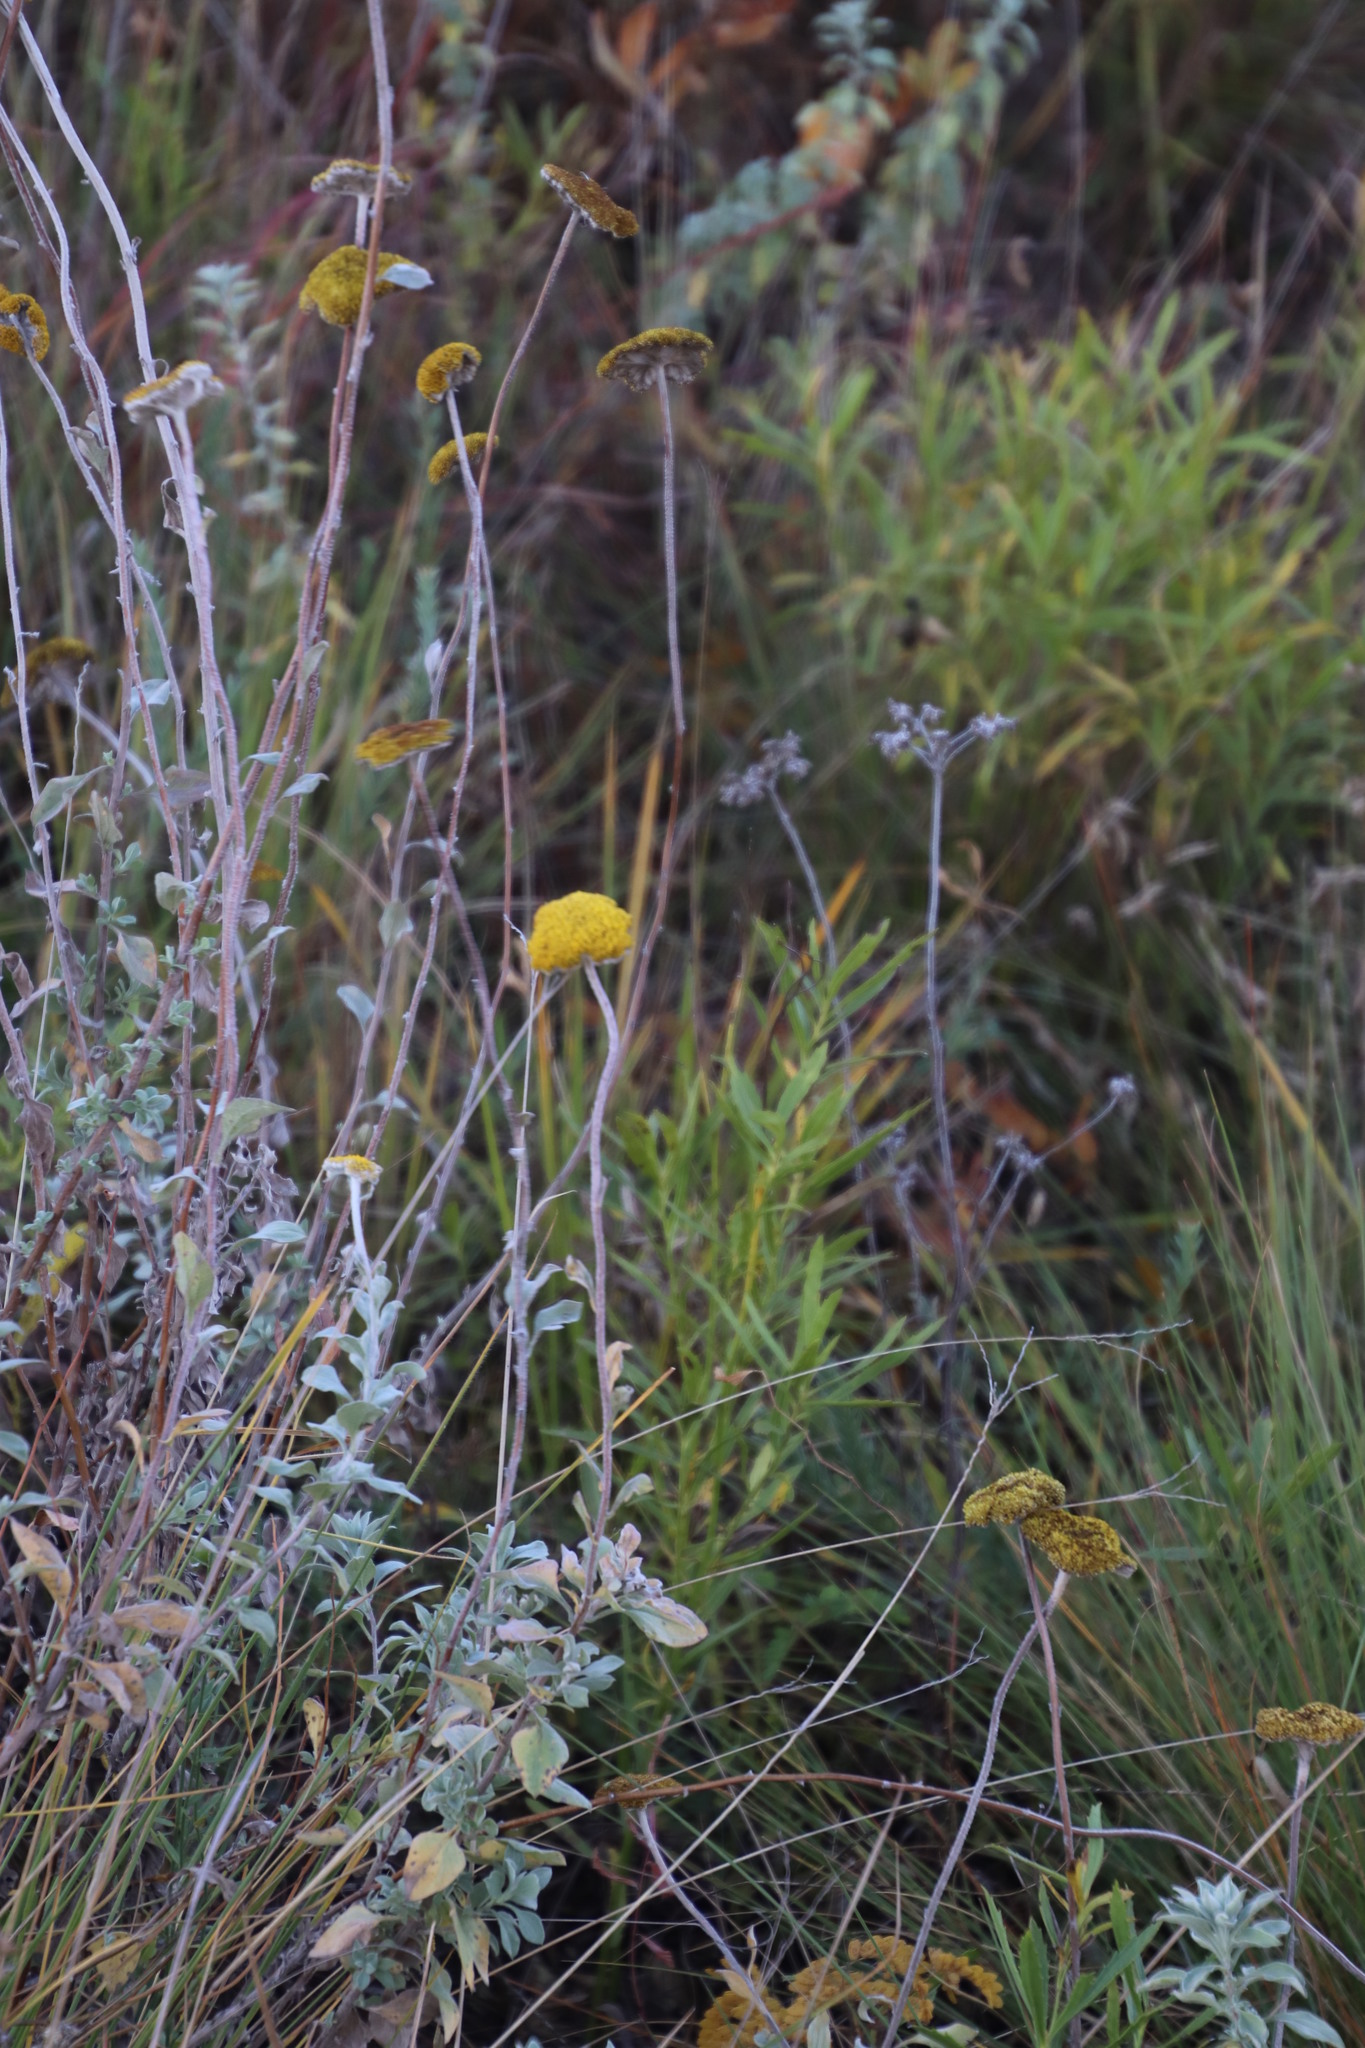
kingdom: Plantae
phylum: Tracheophyta
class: Magnoliopsida
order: Asterales
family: Asteraceae
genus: Helichrysum
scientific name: Helichrysum umbraculigerum
